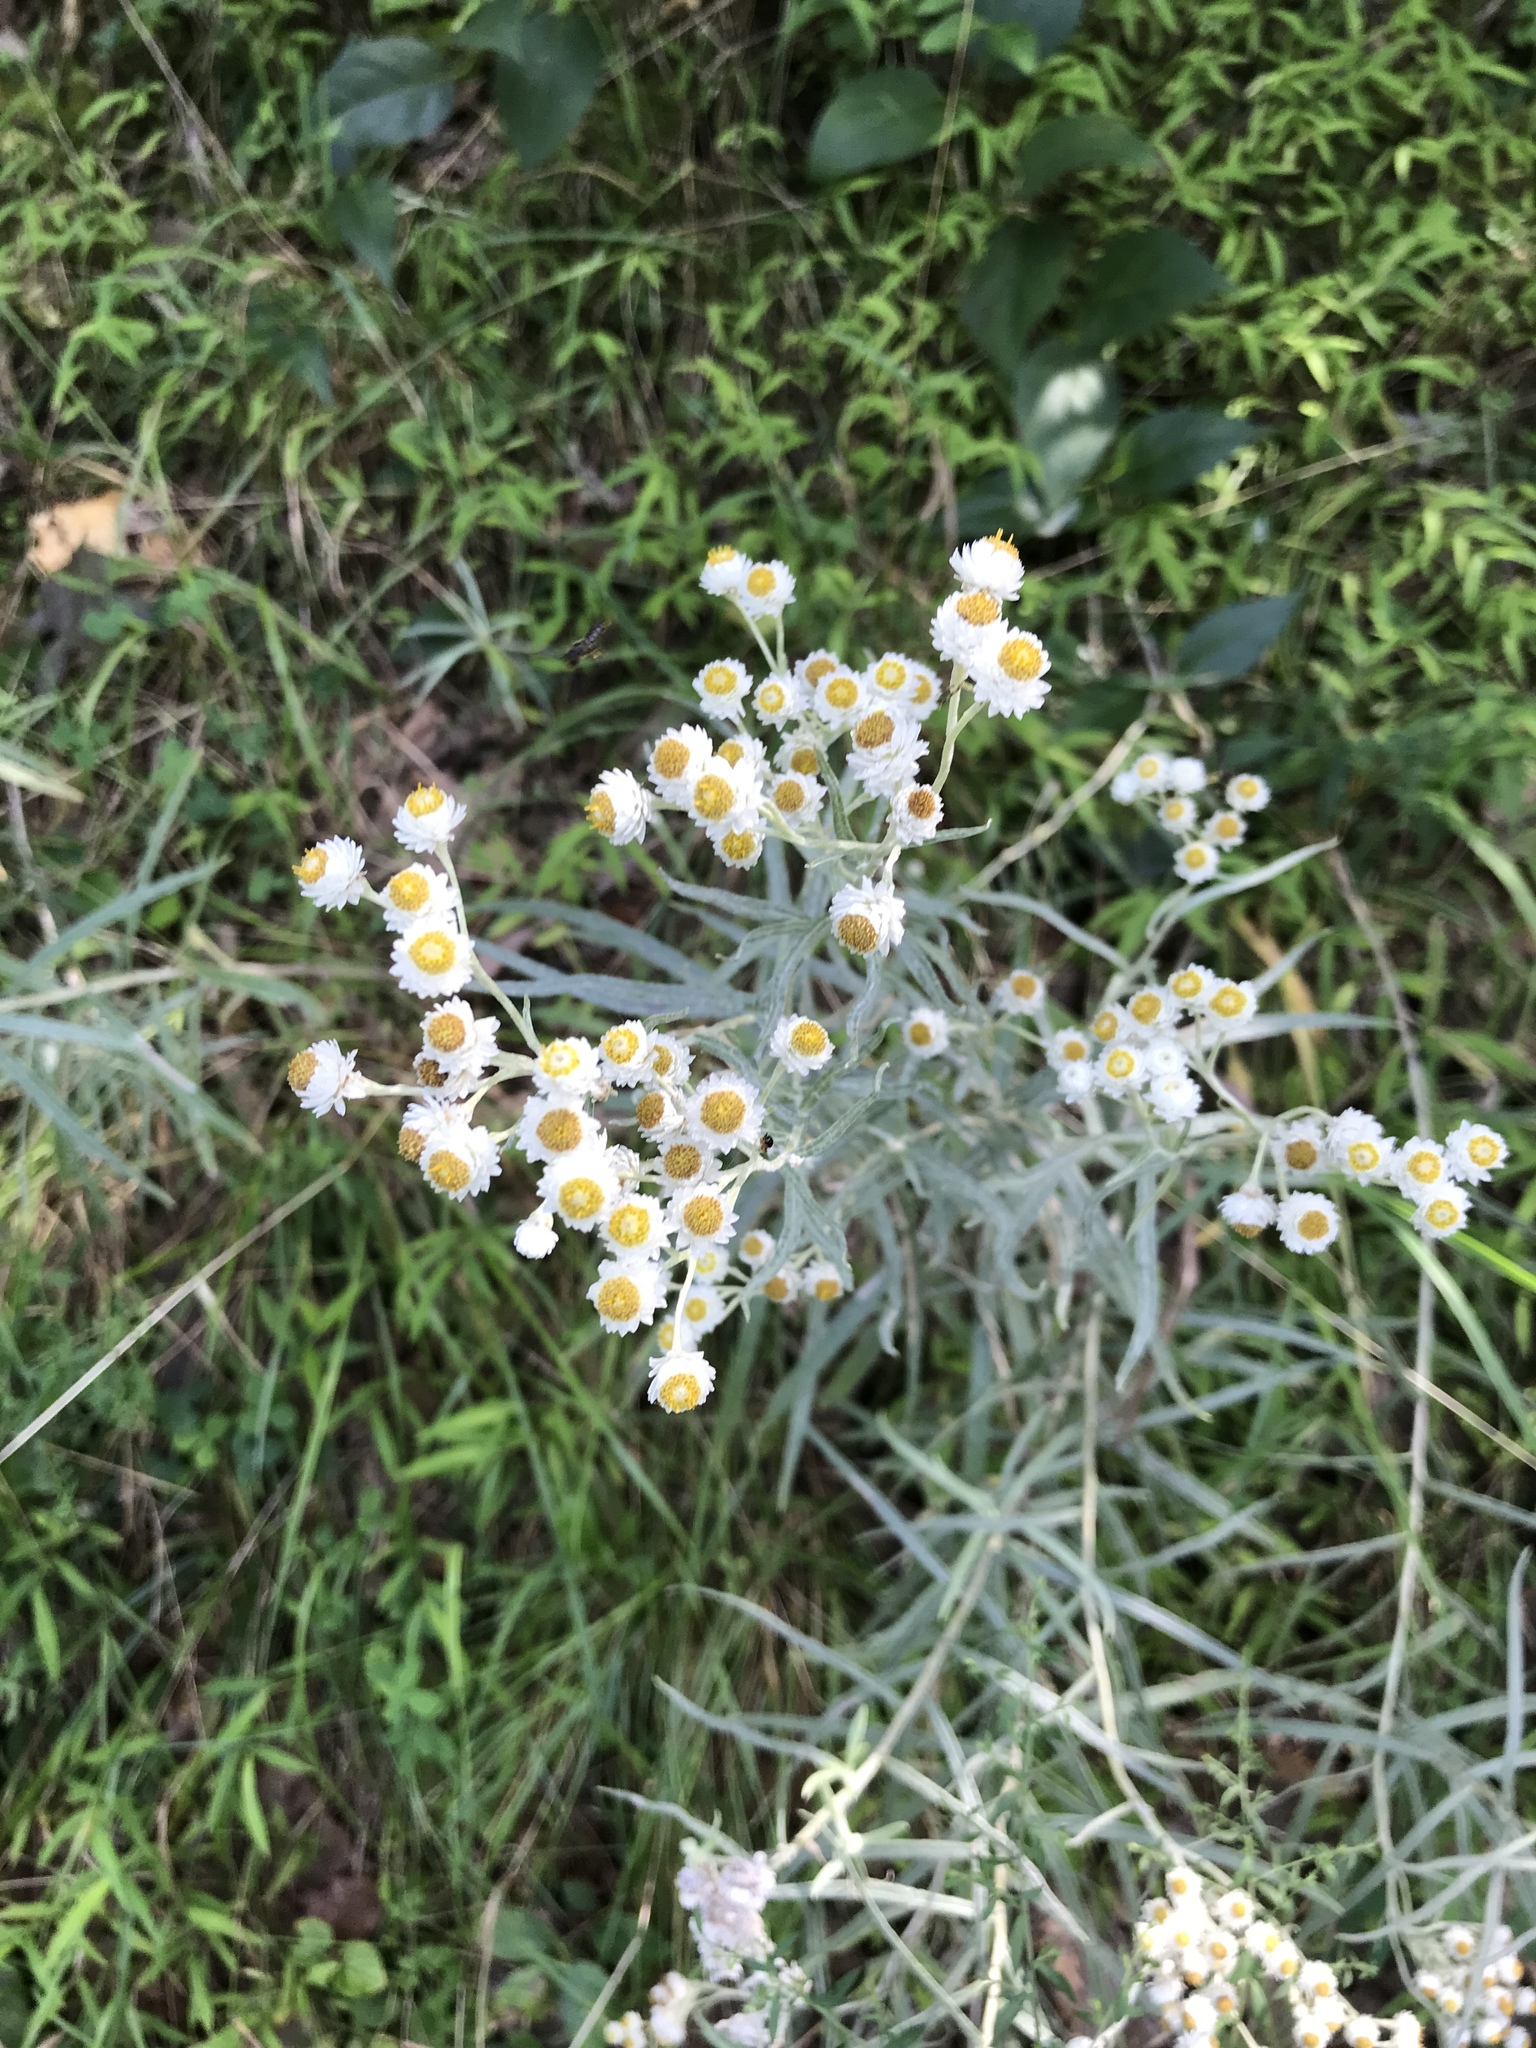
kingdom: Plantae
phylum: Tracheophyta
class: Magnoliopsida
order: Asterales
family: Asteraceae
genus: Anaphalis
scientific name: Anaphalis margaritacea
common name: Pearly everlasting
